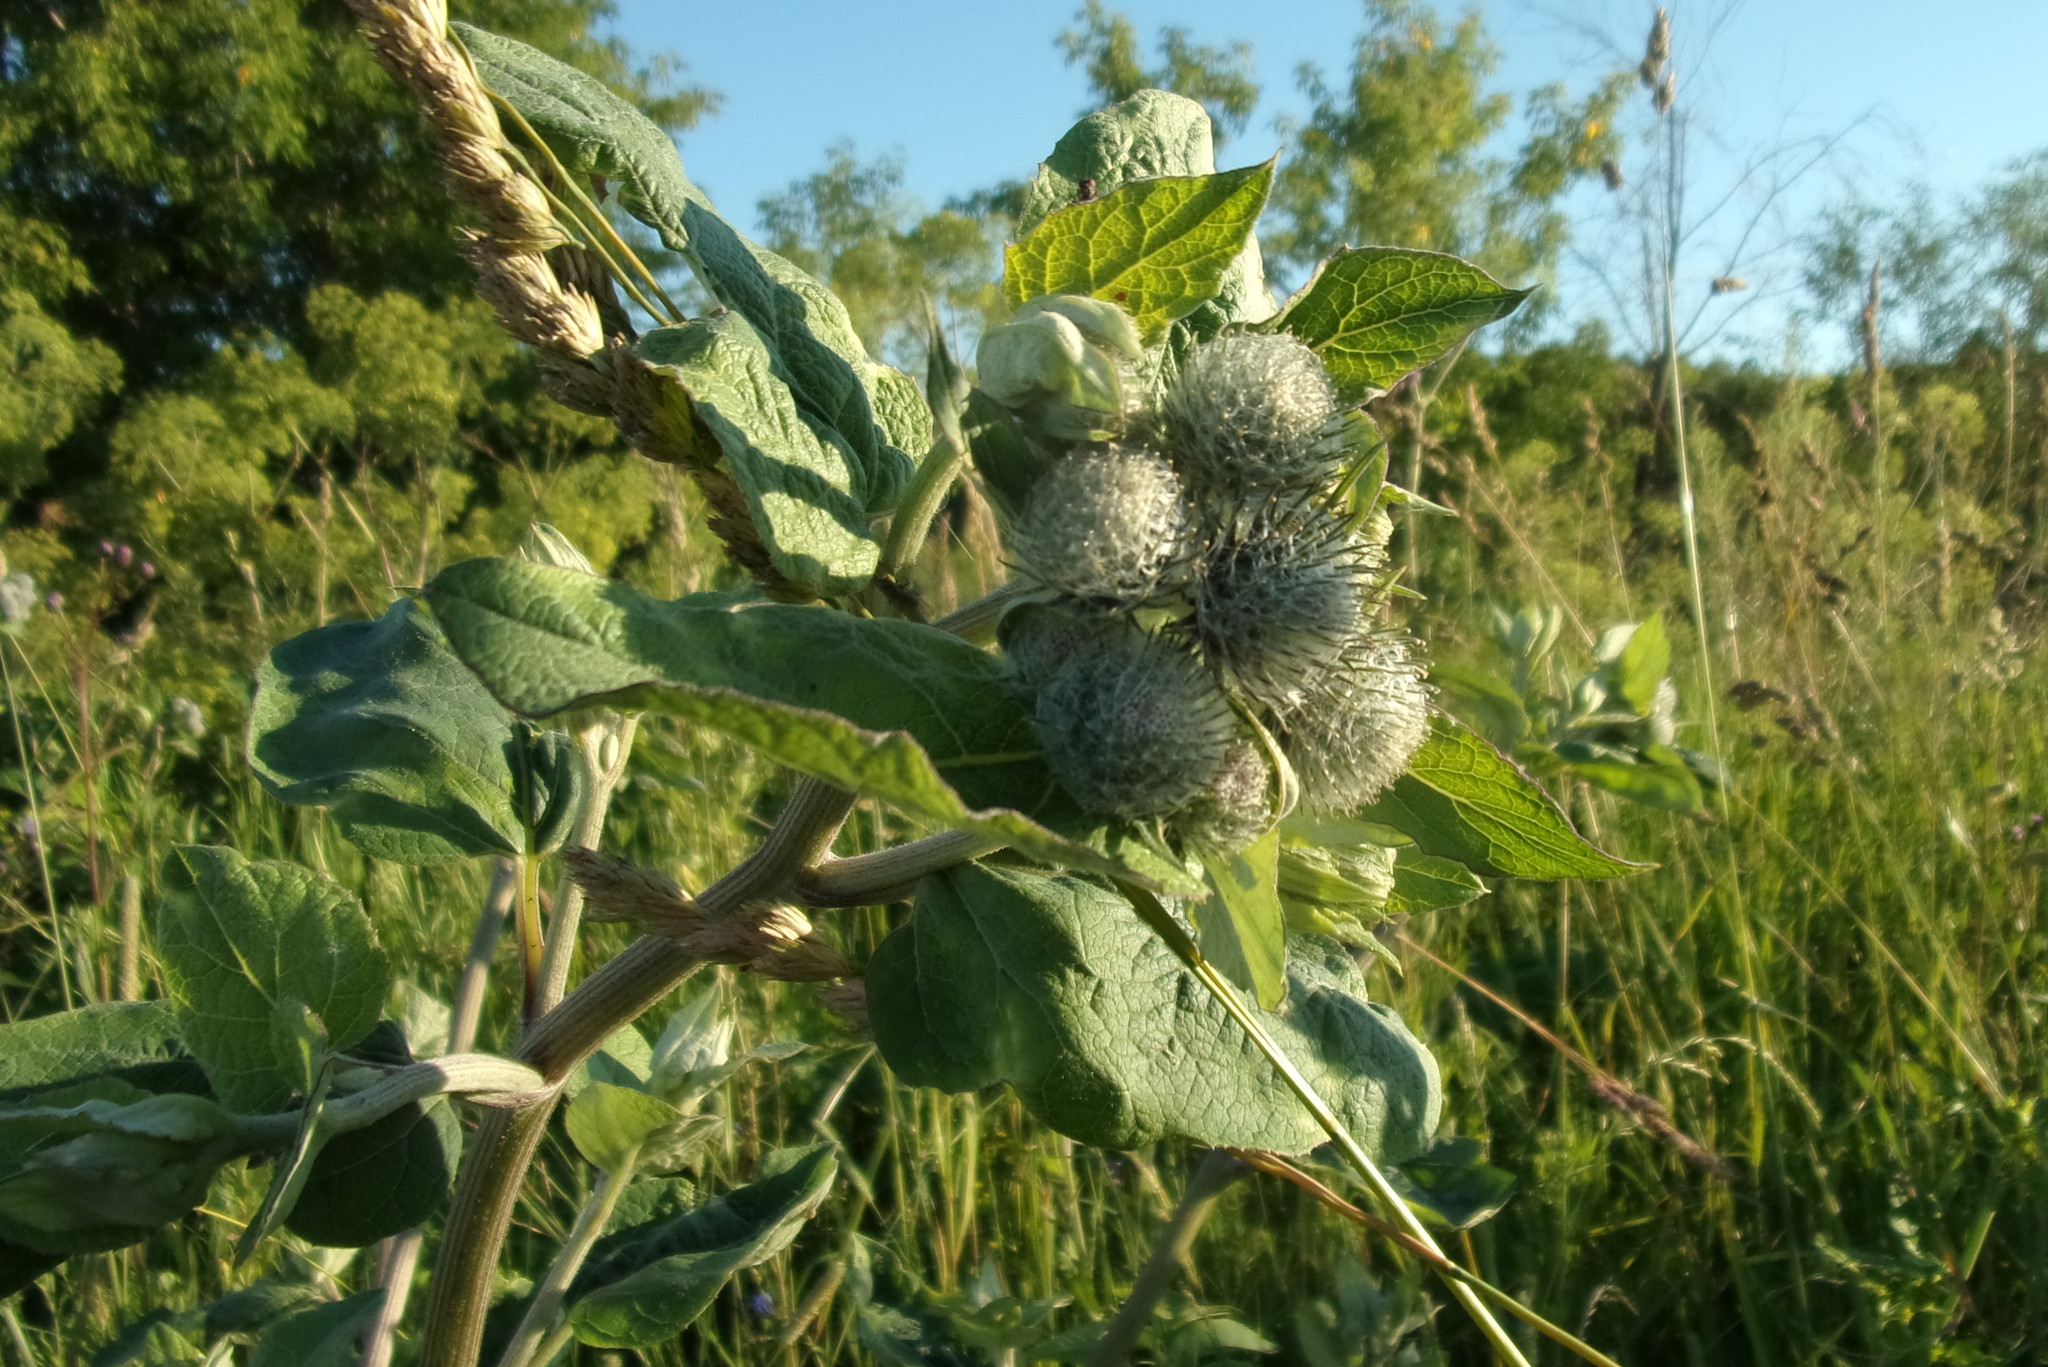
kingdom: Plantae
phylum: Tracheophyta
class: Magnoliopsida
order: Asterales
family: Asteraceae
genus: Arctium
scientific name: Arctium tomentosum
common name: Woolly burdock
